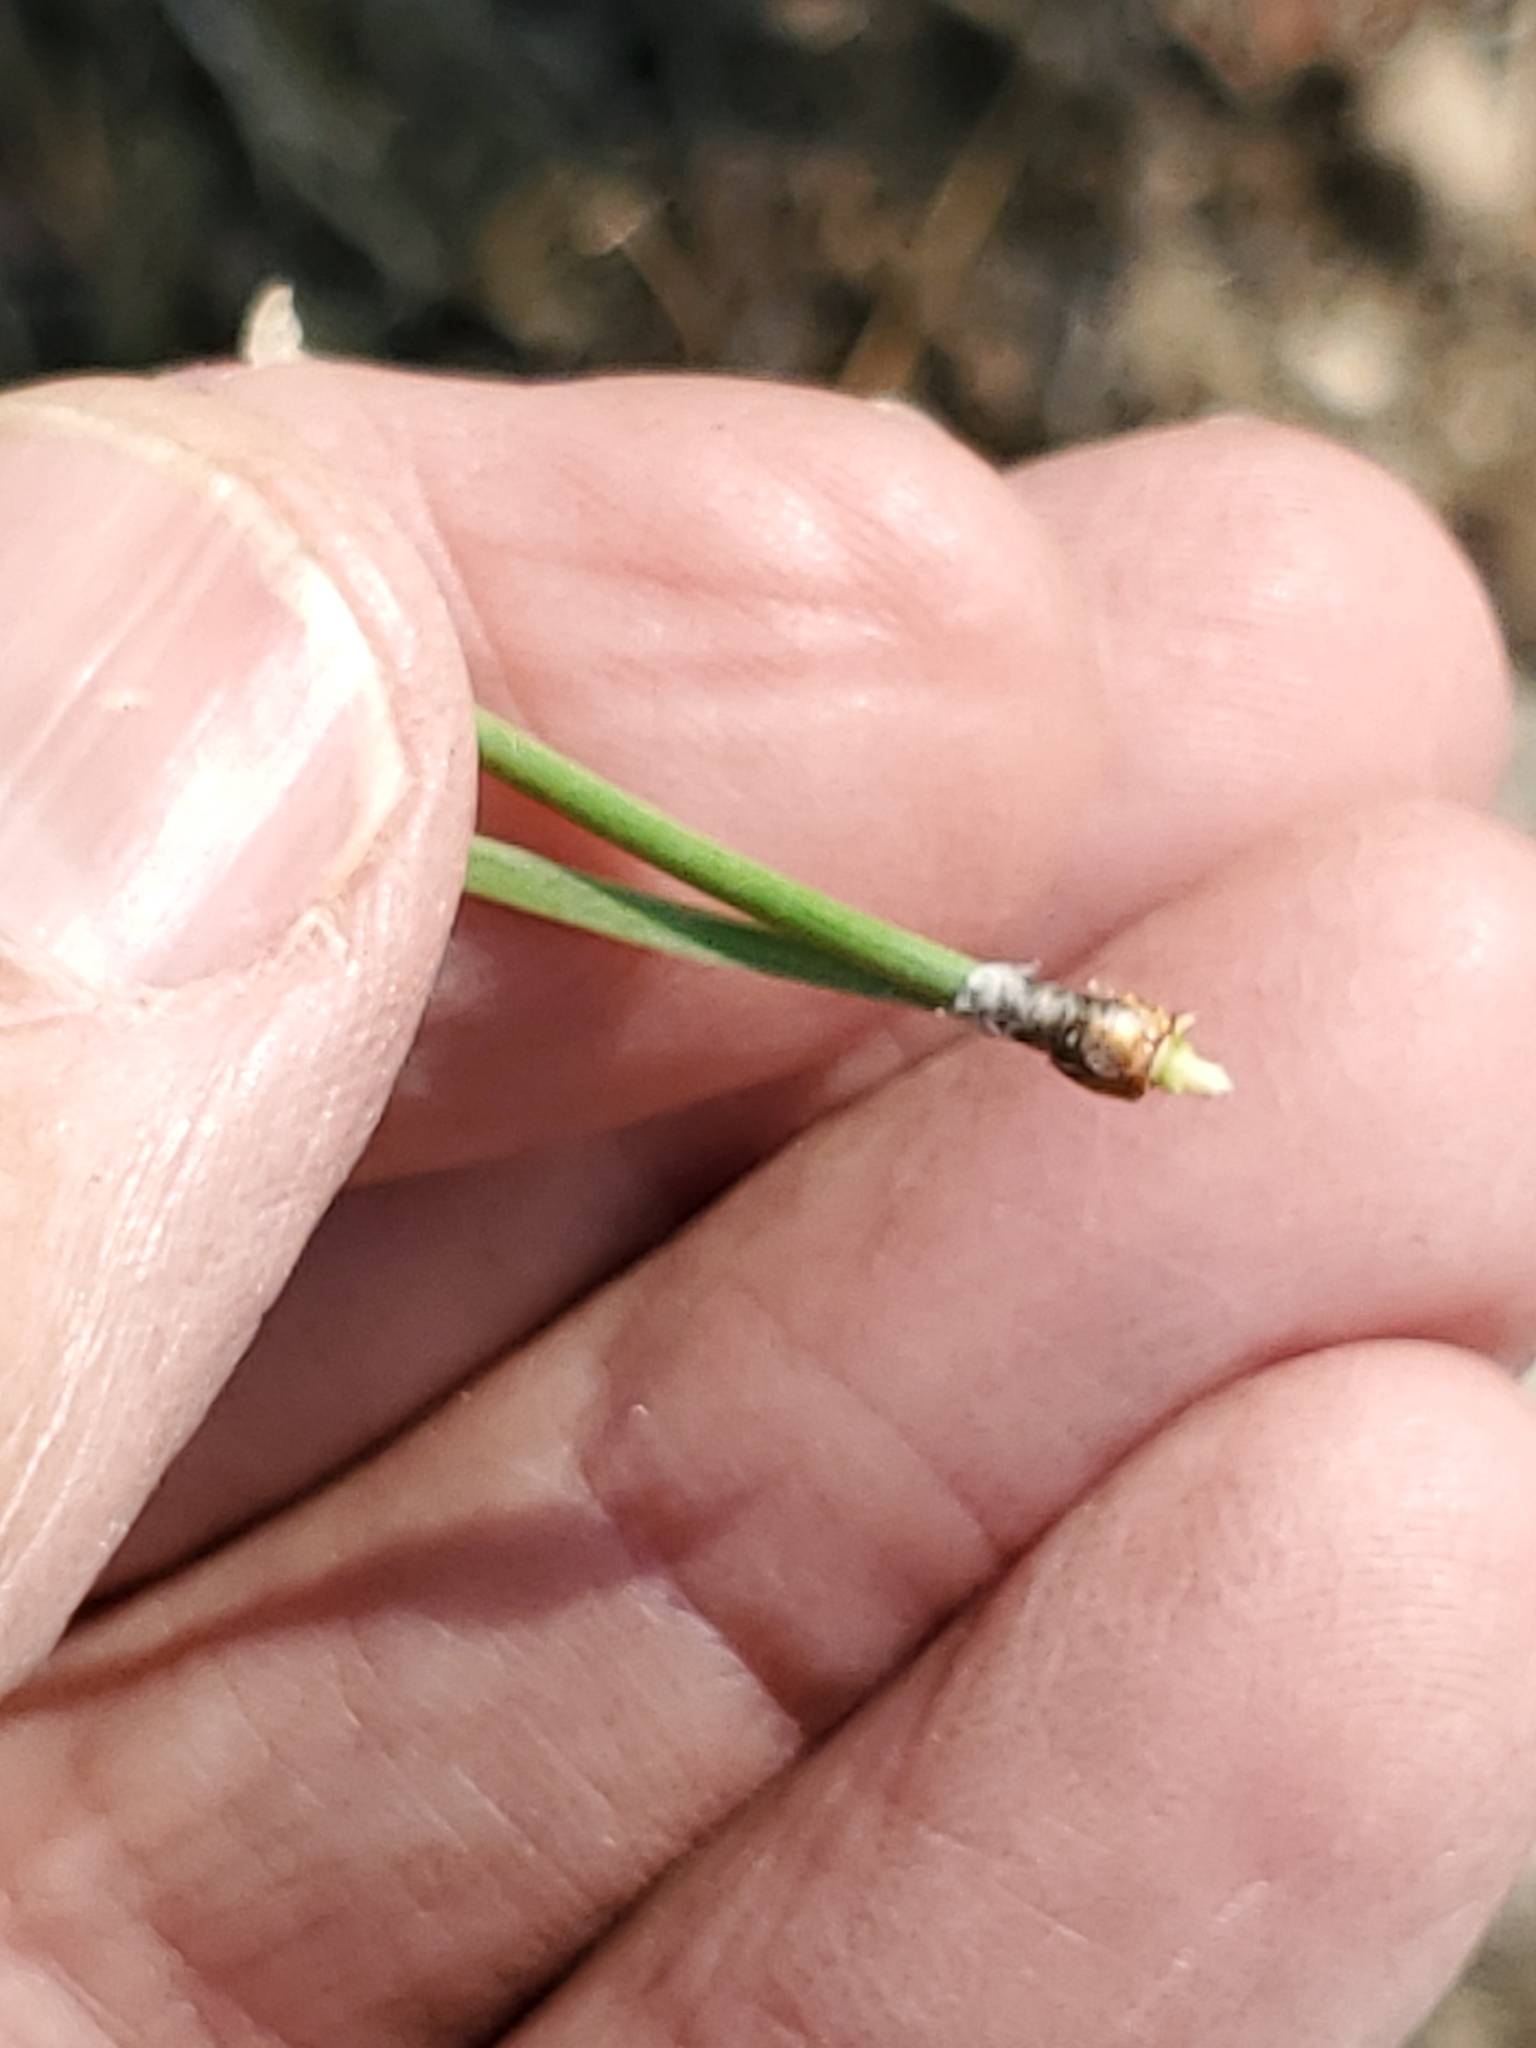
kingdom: Plantae
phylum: Tracheophyta
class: Pinopsida
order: Pinales
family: Pinaceae
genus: Pinus
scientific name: Pinus ponderosa
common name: Western yellow-pine
